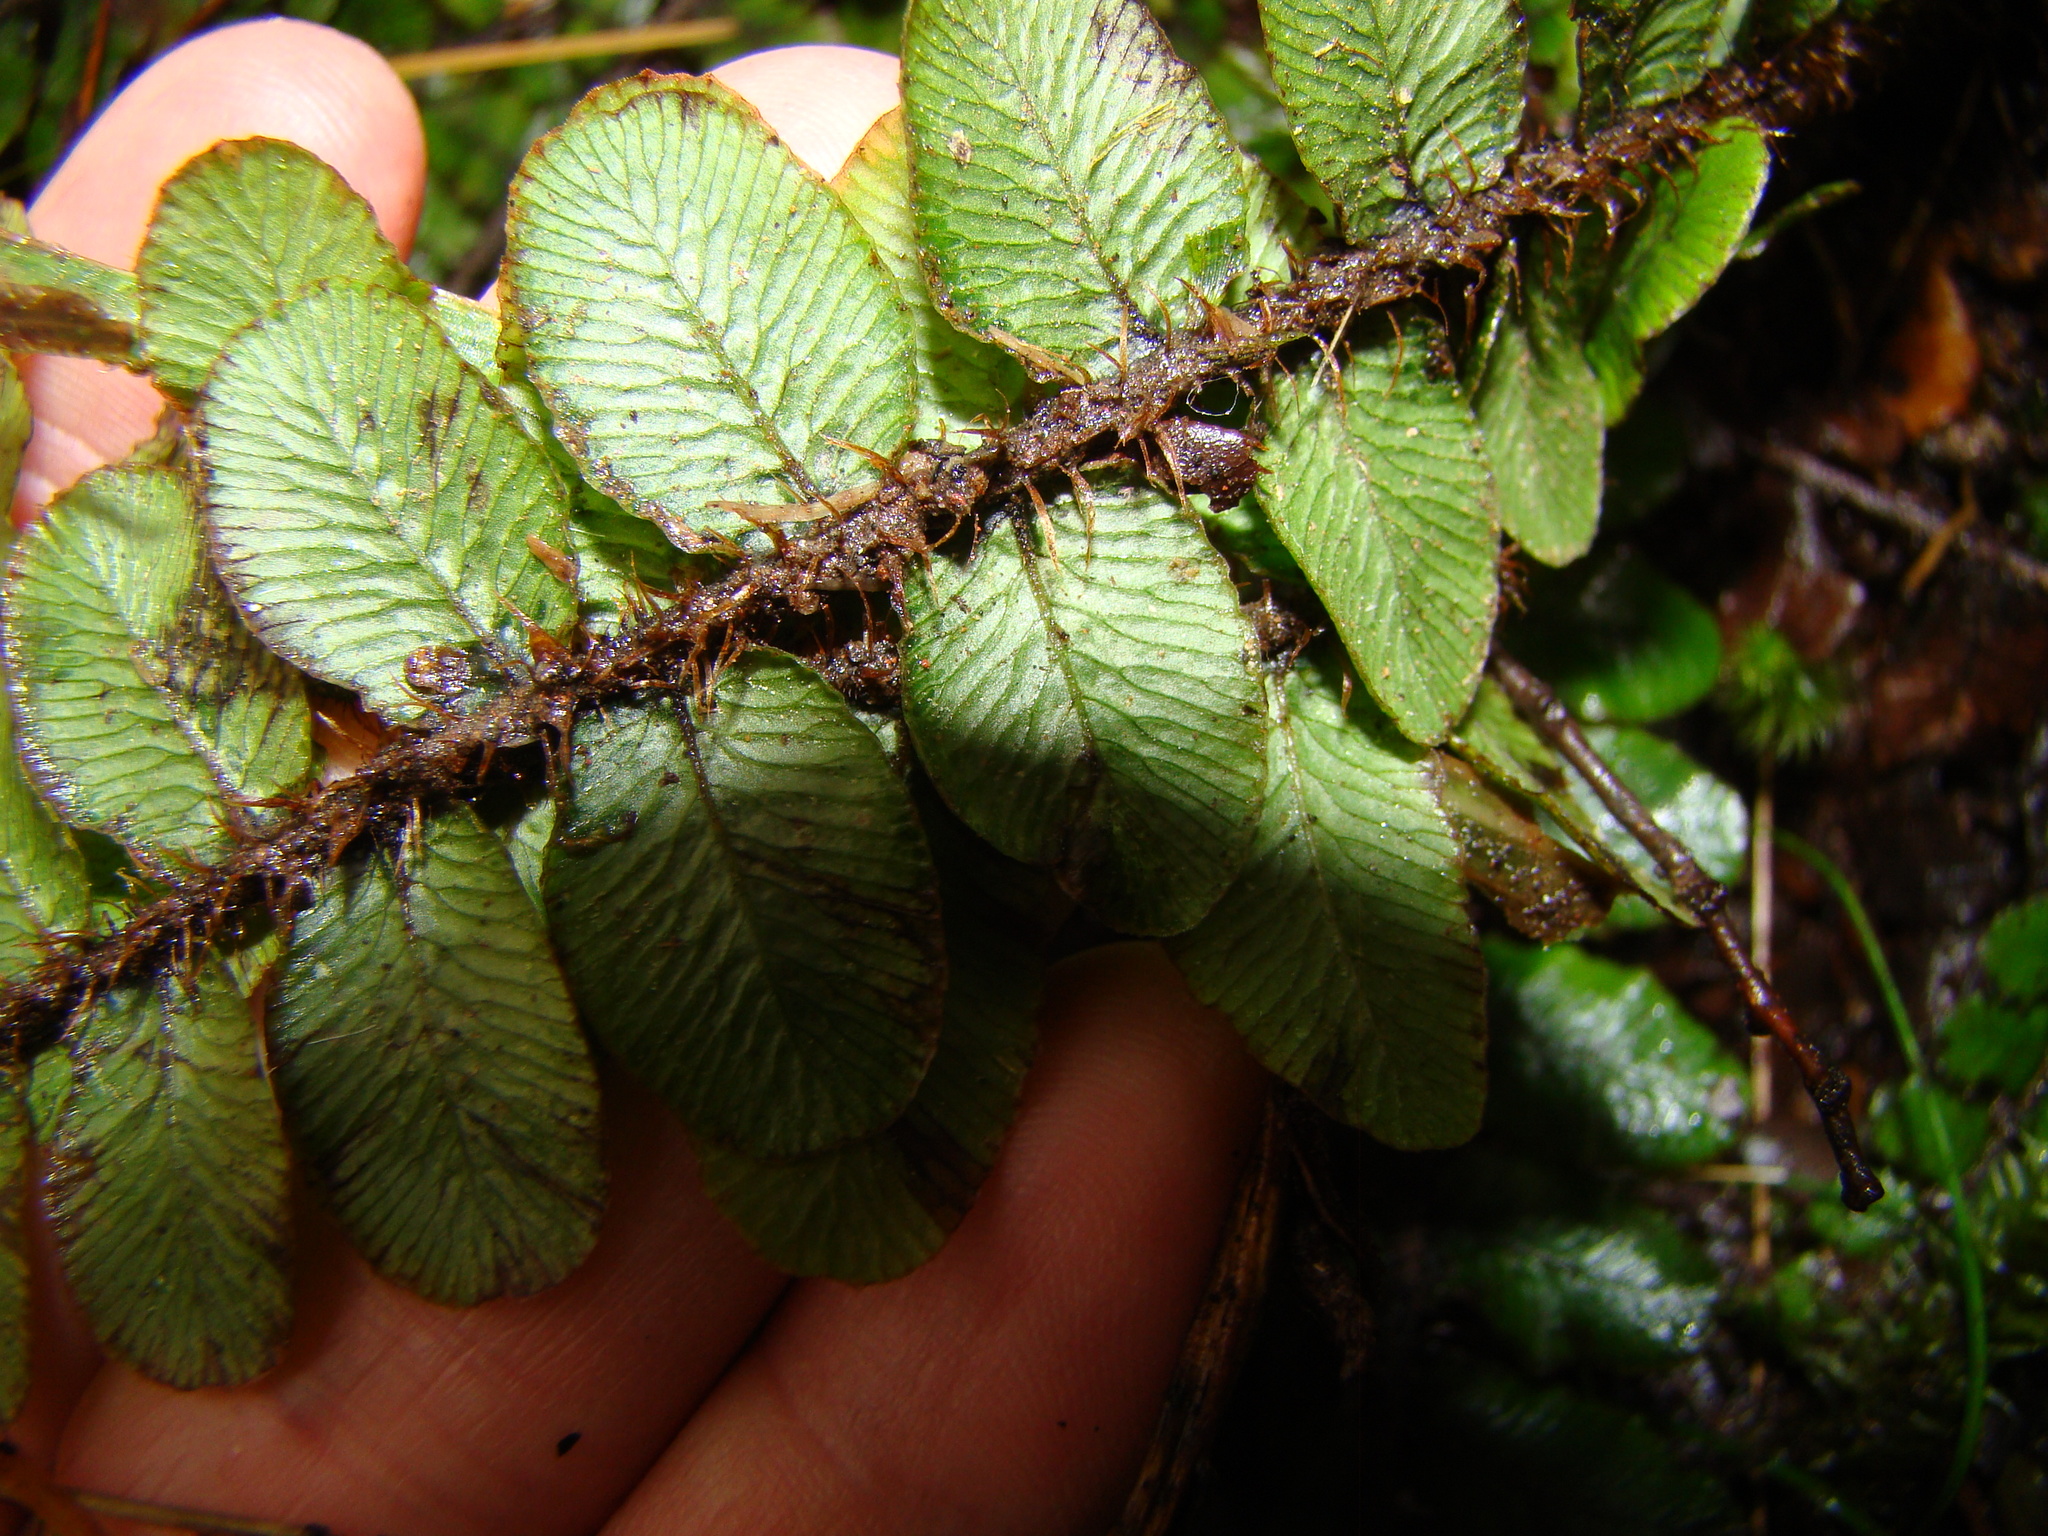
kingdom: Plantae
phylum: Tracheophyta
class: Polypodiopsida
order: Polypodiales
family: Blechnaceae
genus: Cranfillia
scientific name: Cranfillia fluviatilis
